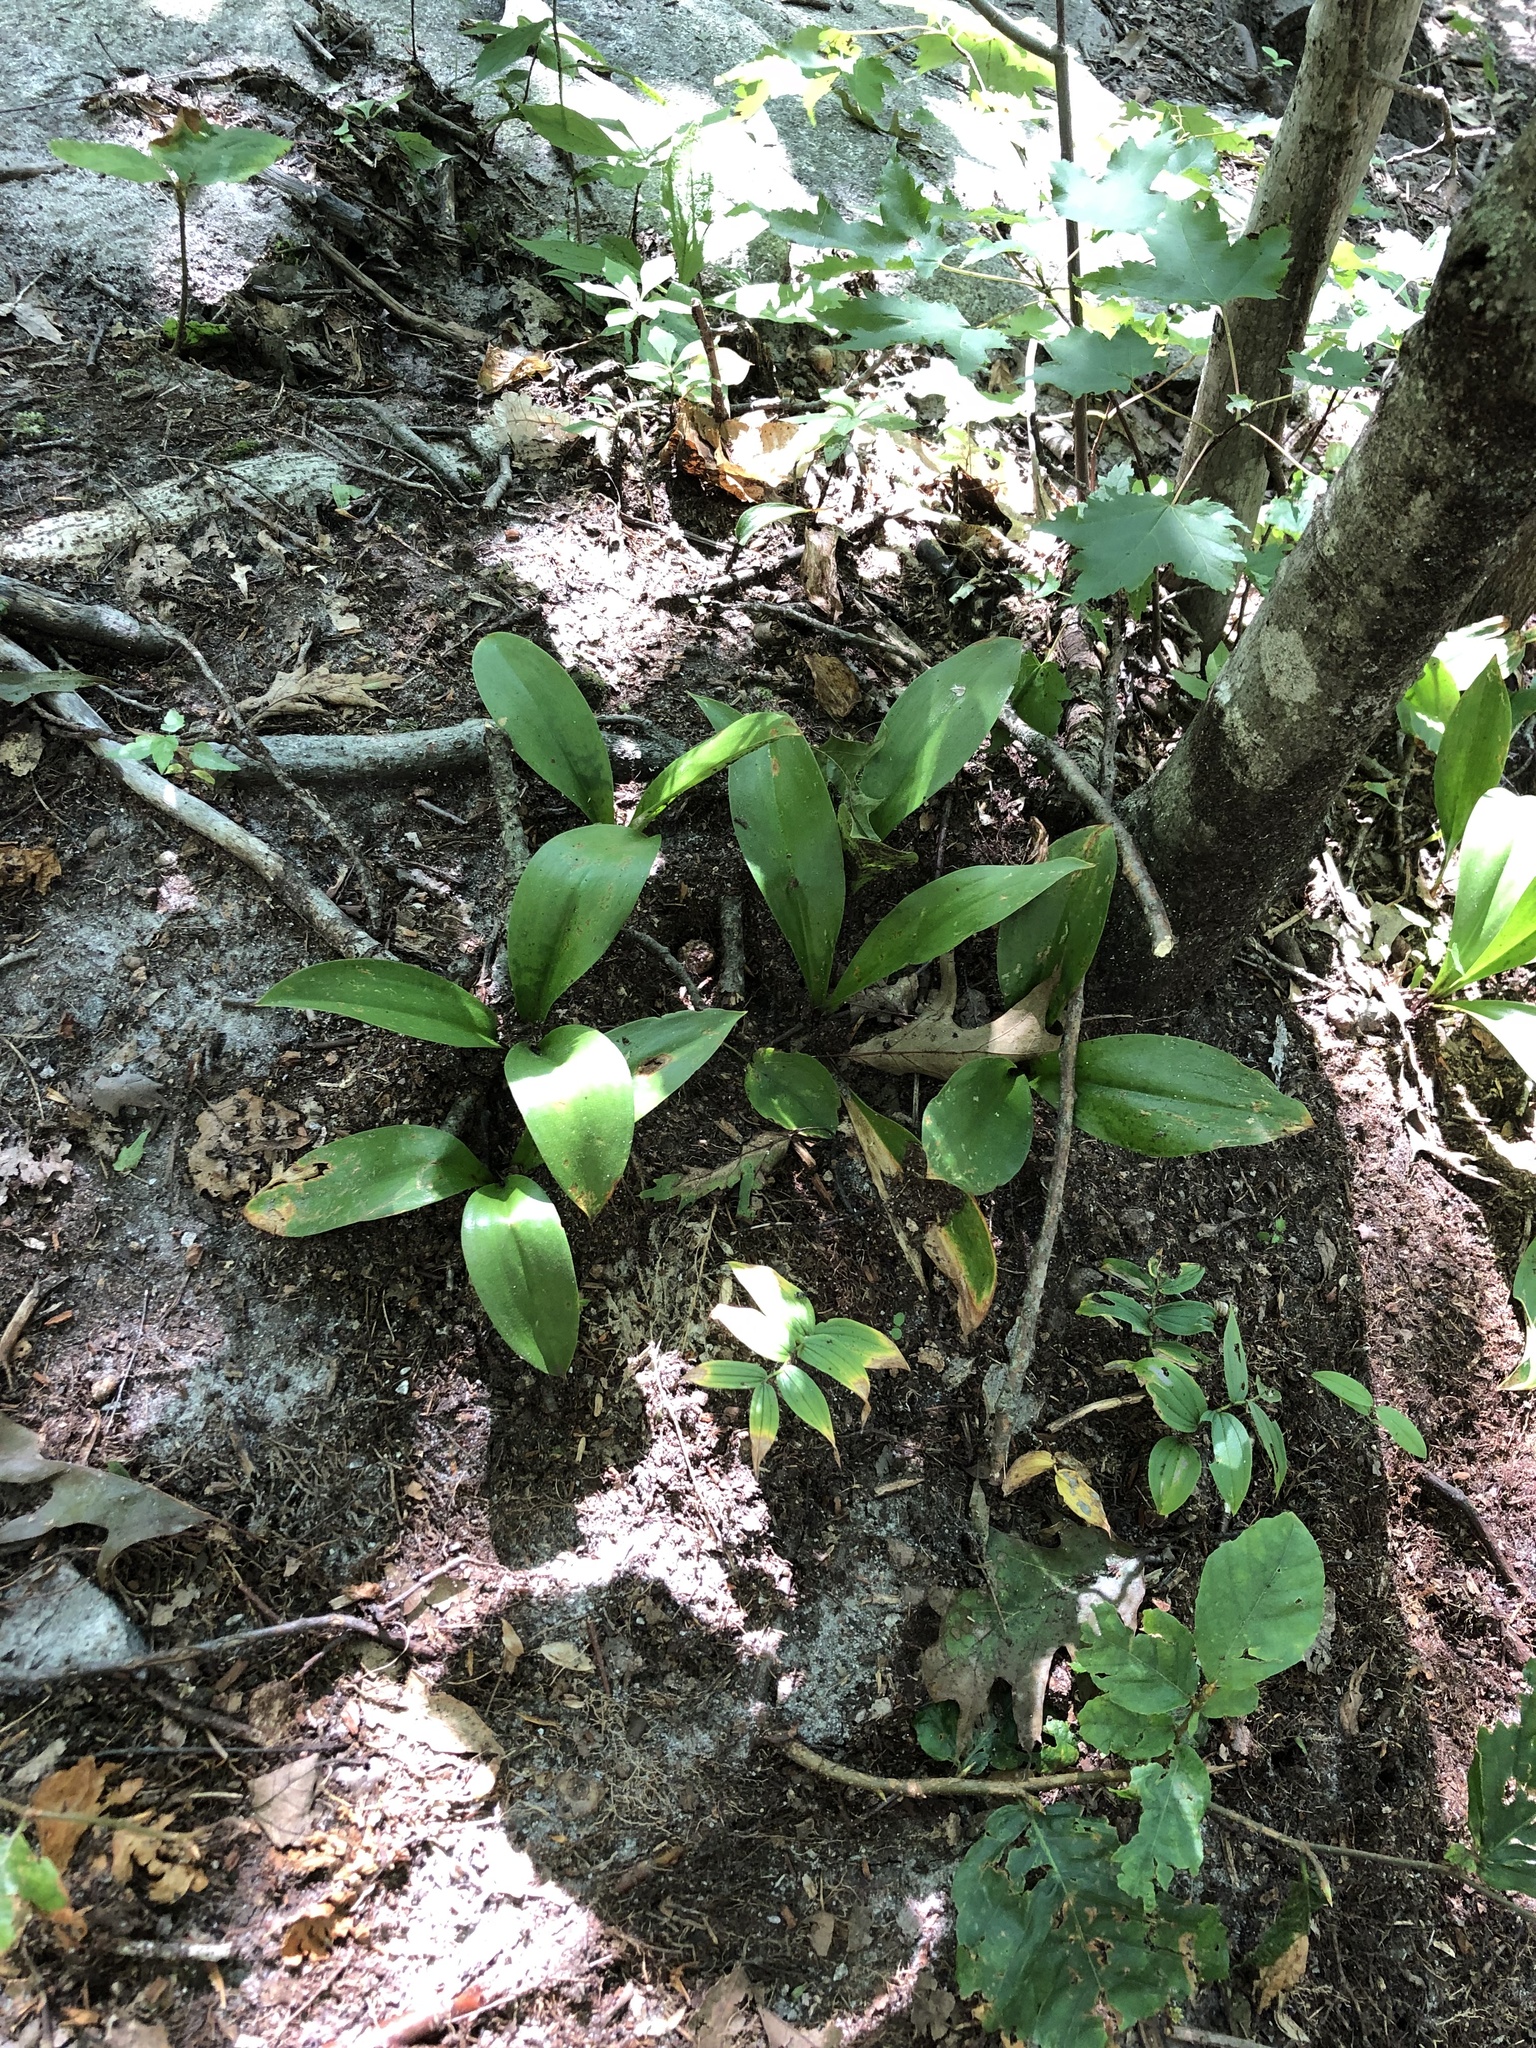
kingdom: Plantae
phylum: Tracheophyta
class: Liliopsida
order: Liliales
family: Liliaceae
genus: Clintonia
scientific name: Clintonia borealis
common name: Yellow clintonia
